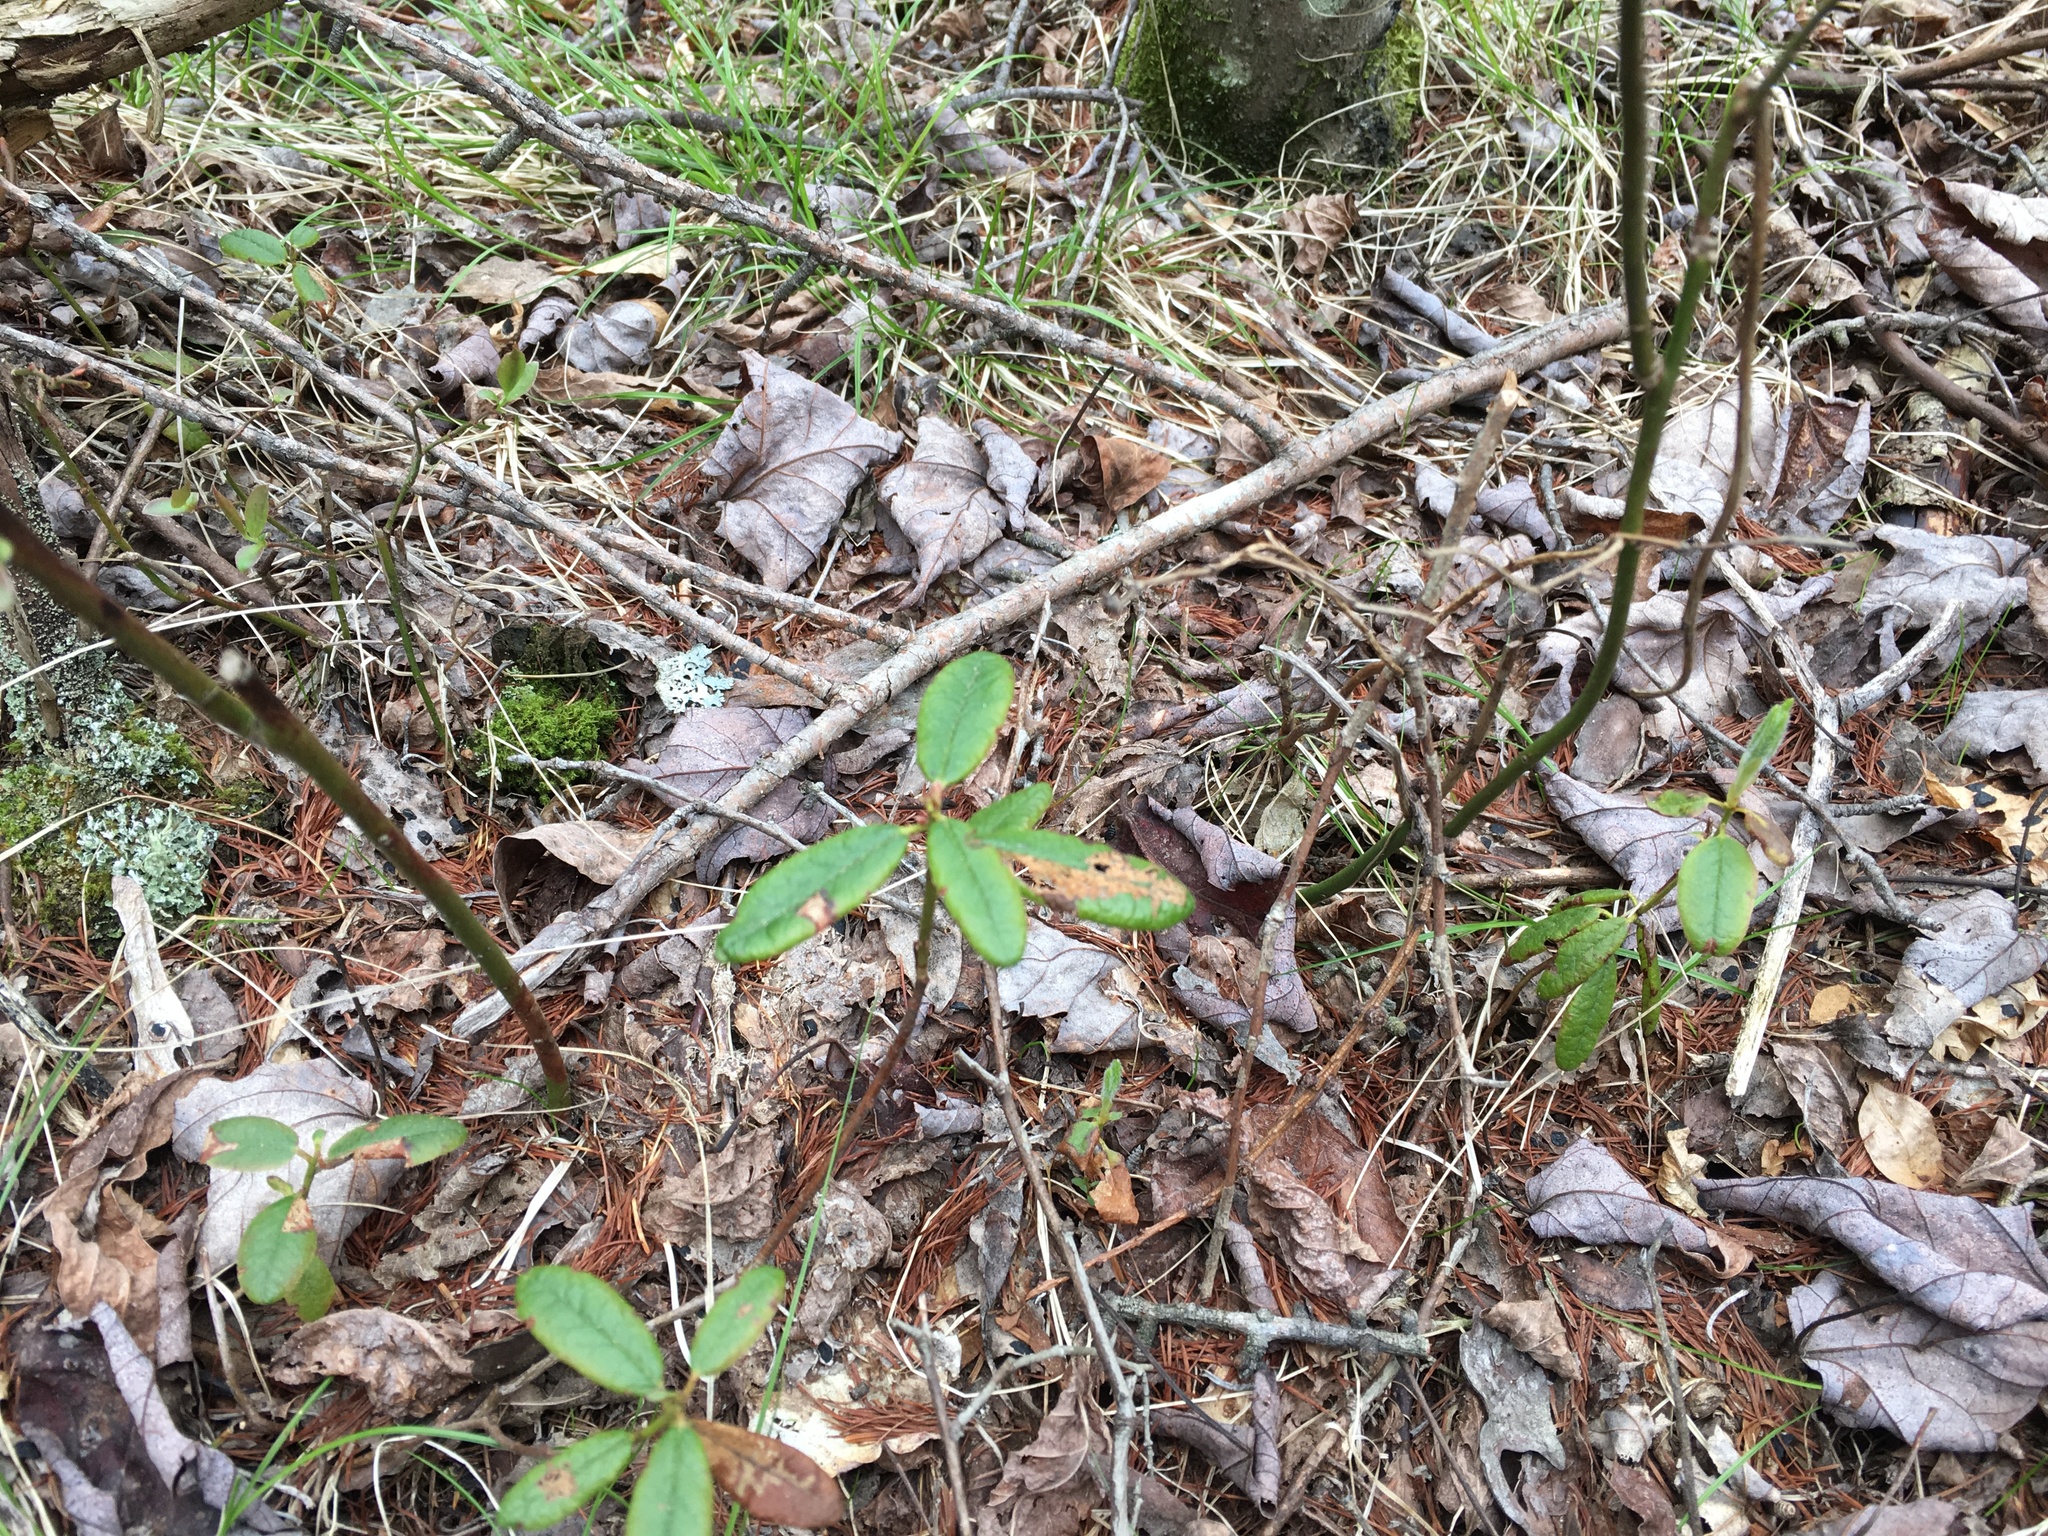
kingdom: Plantae
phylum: Tracheophyta
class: Magnoliopsida
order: Ericales
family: Ericaceae
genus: Rhododendron
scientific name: Rhododendron groenlandicum
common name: Bog labrador tea
